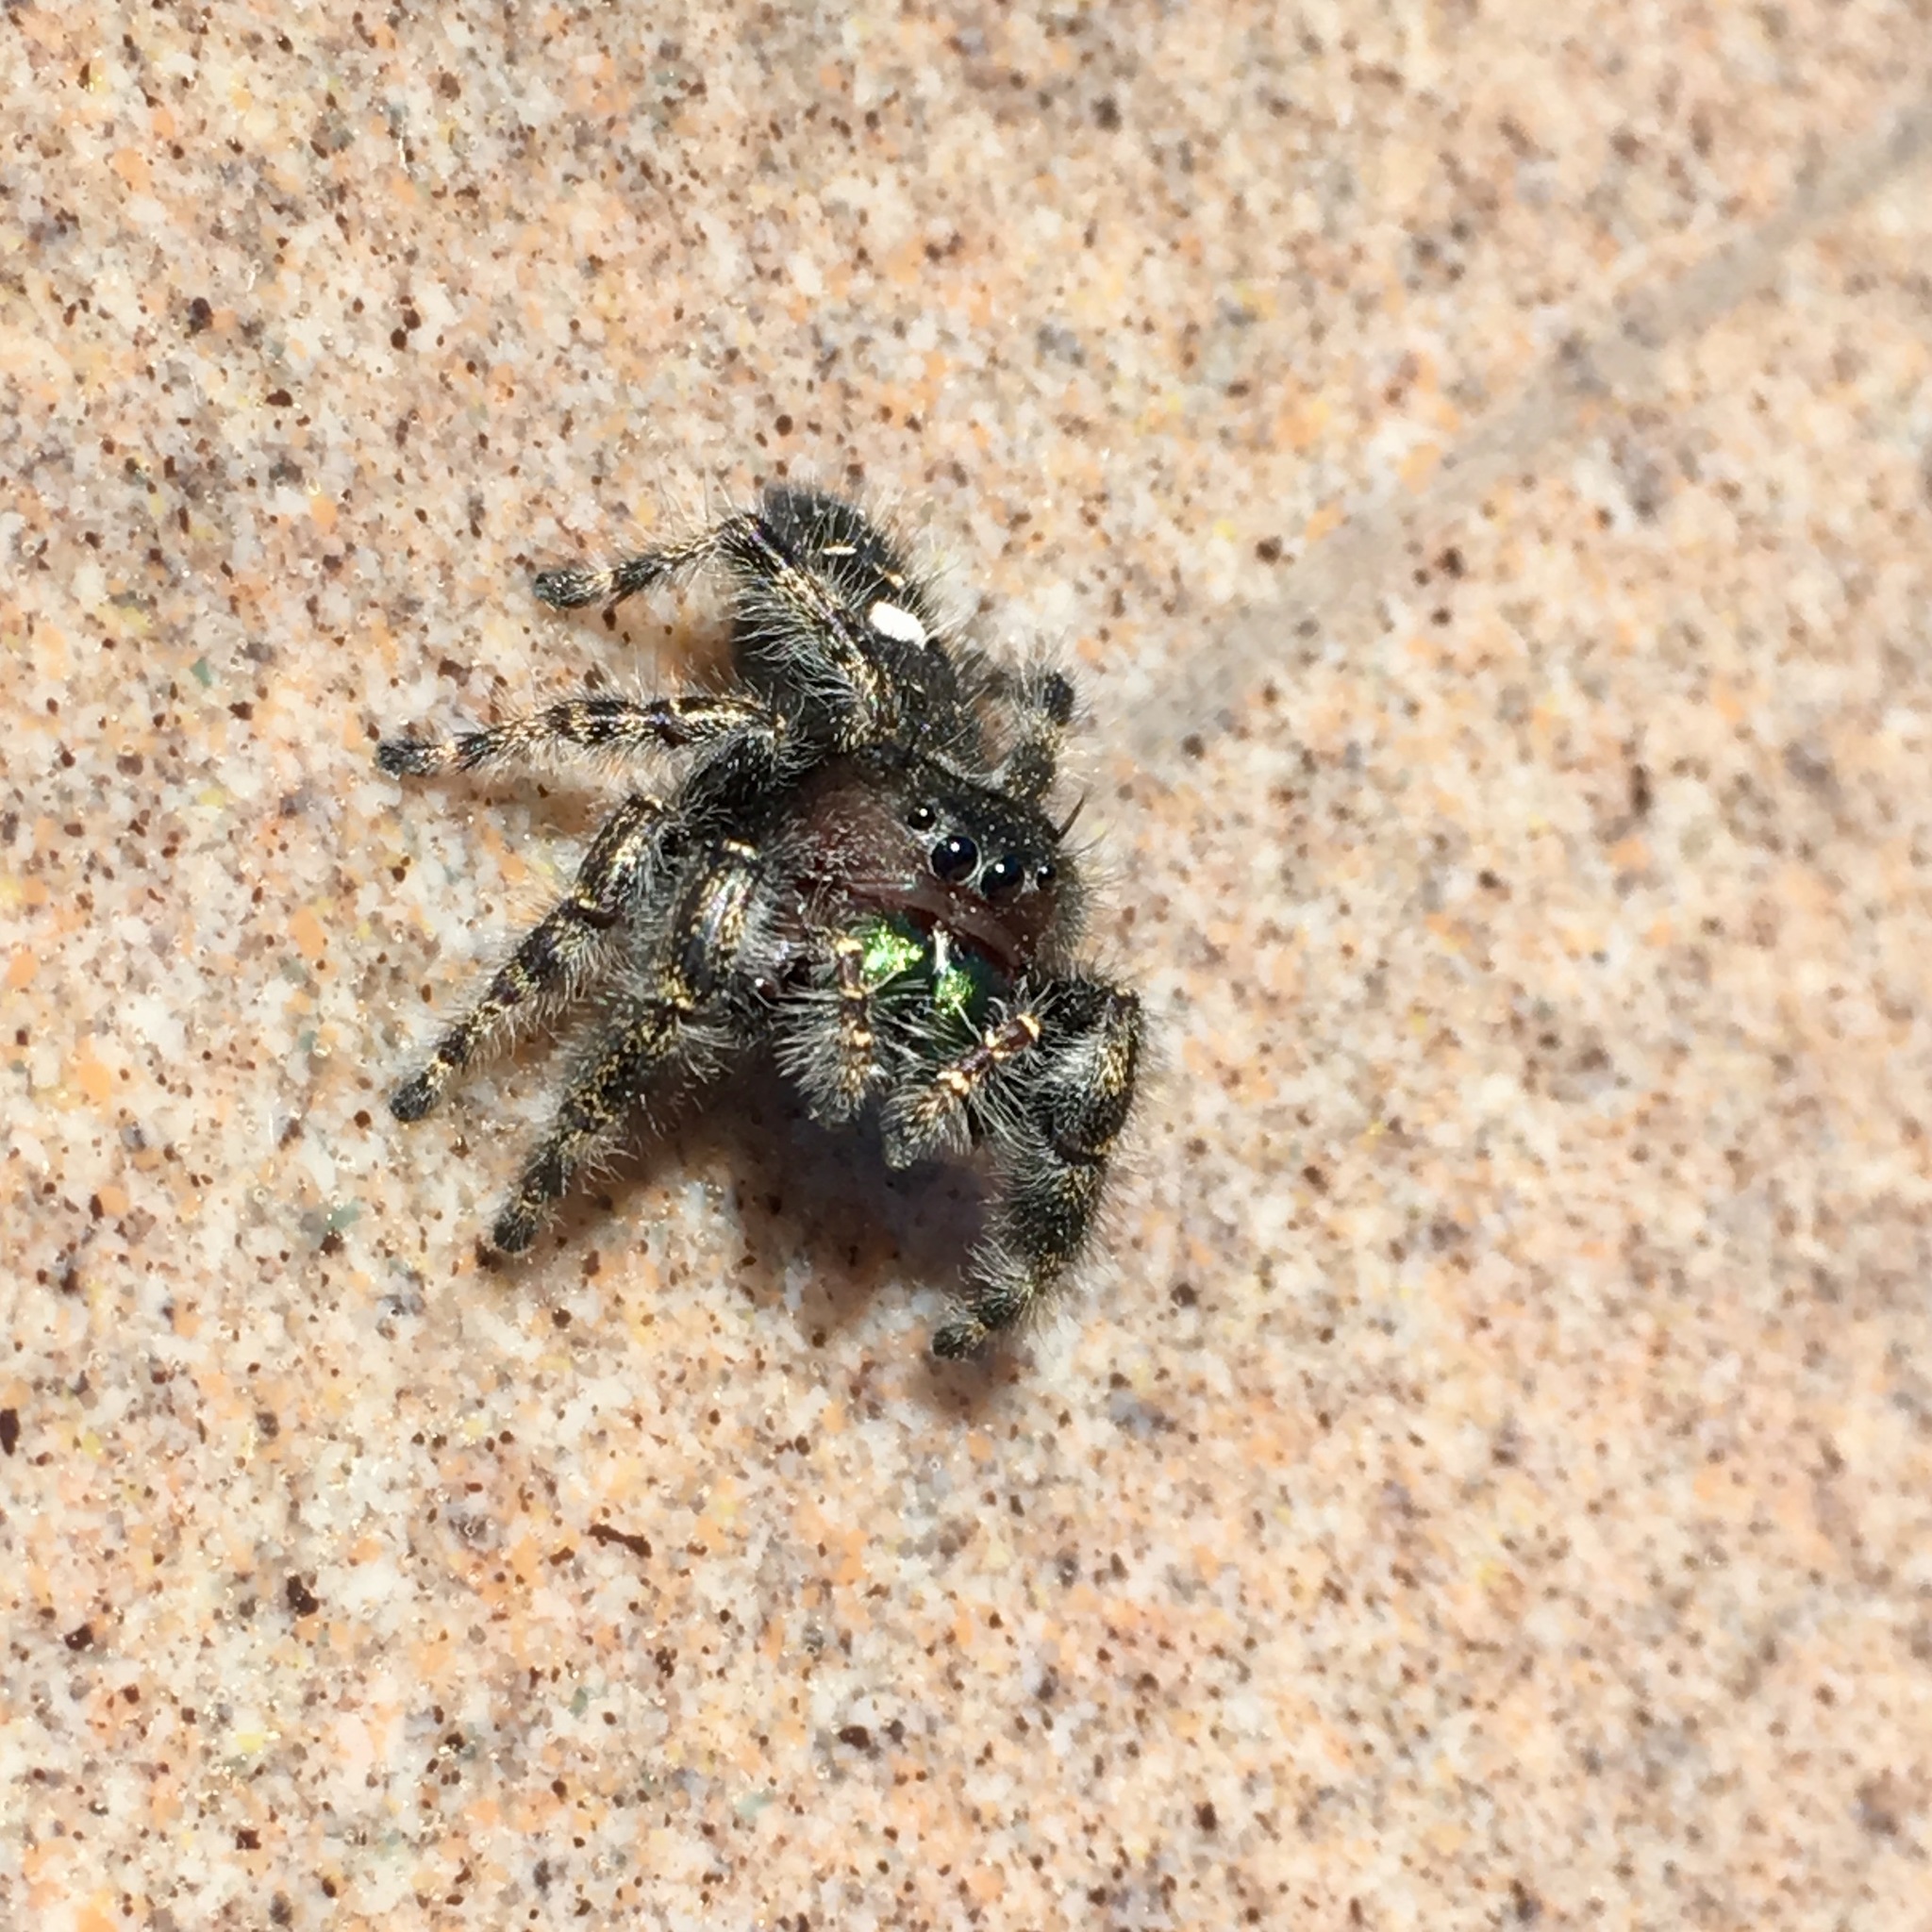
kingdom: Animalia
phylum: Arthropoda
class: Arachnida
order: Araneae
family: Salticidae
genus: Phidippus
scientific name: Phidippus audax
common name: Bold jumper
